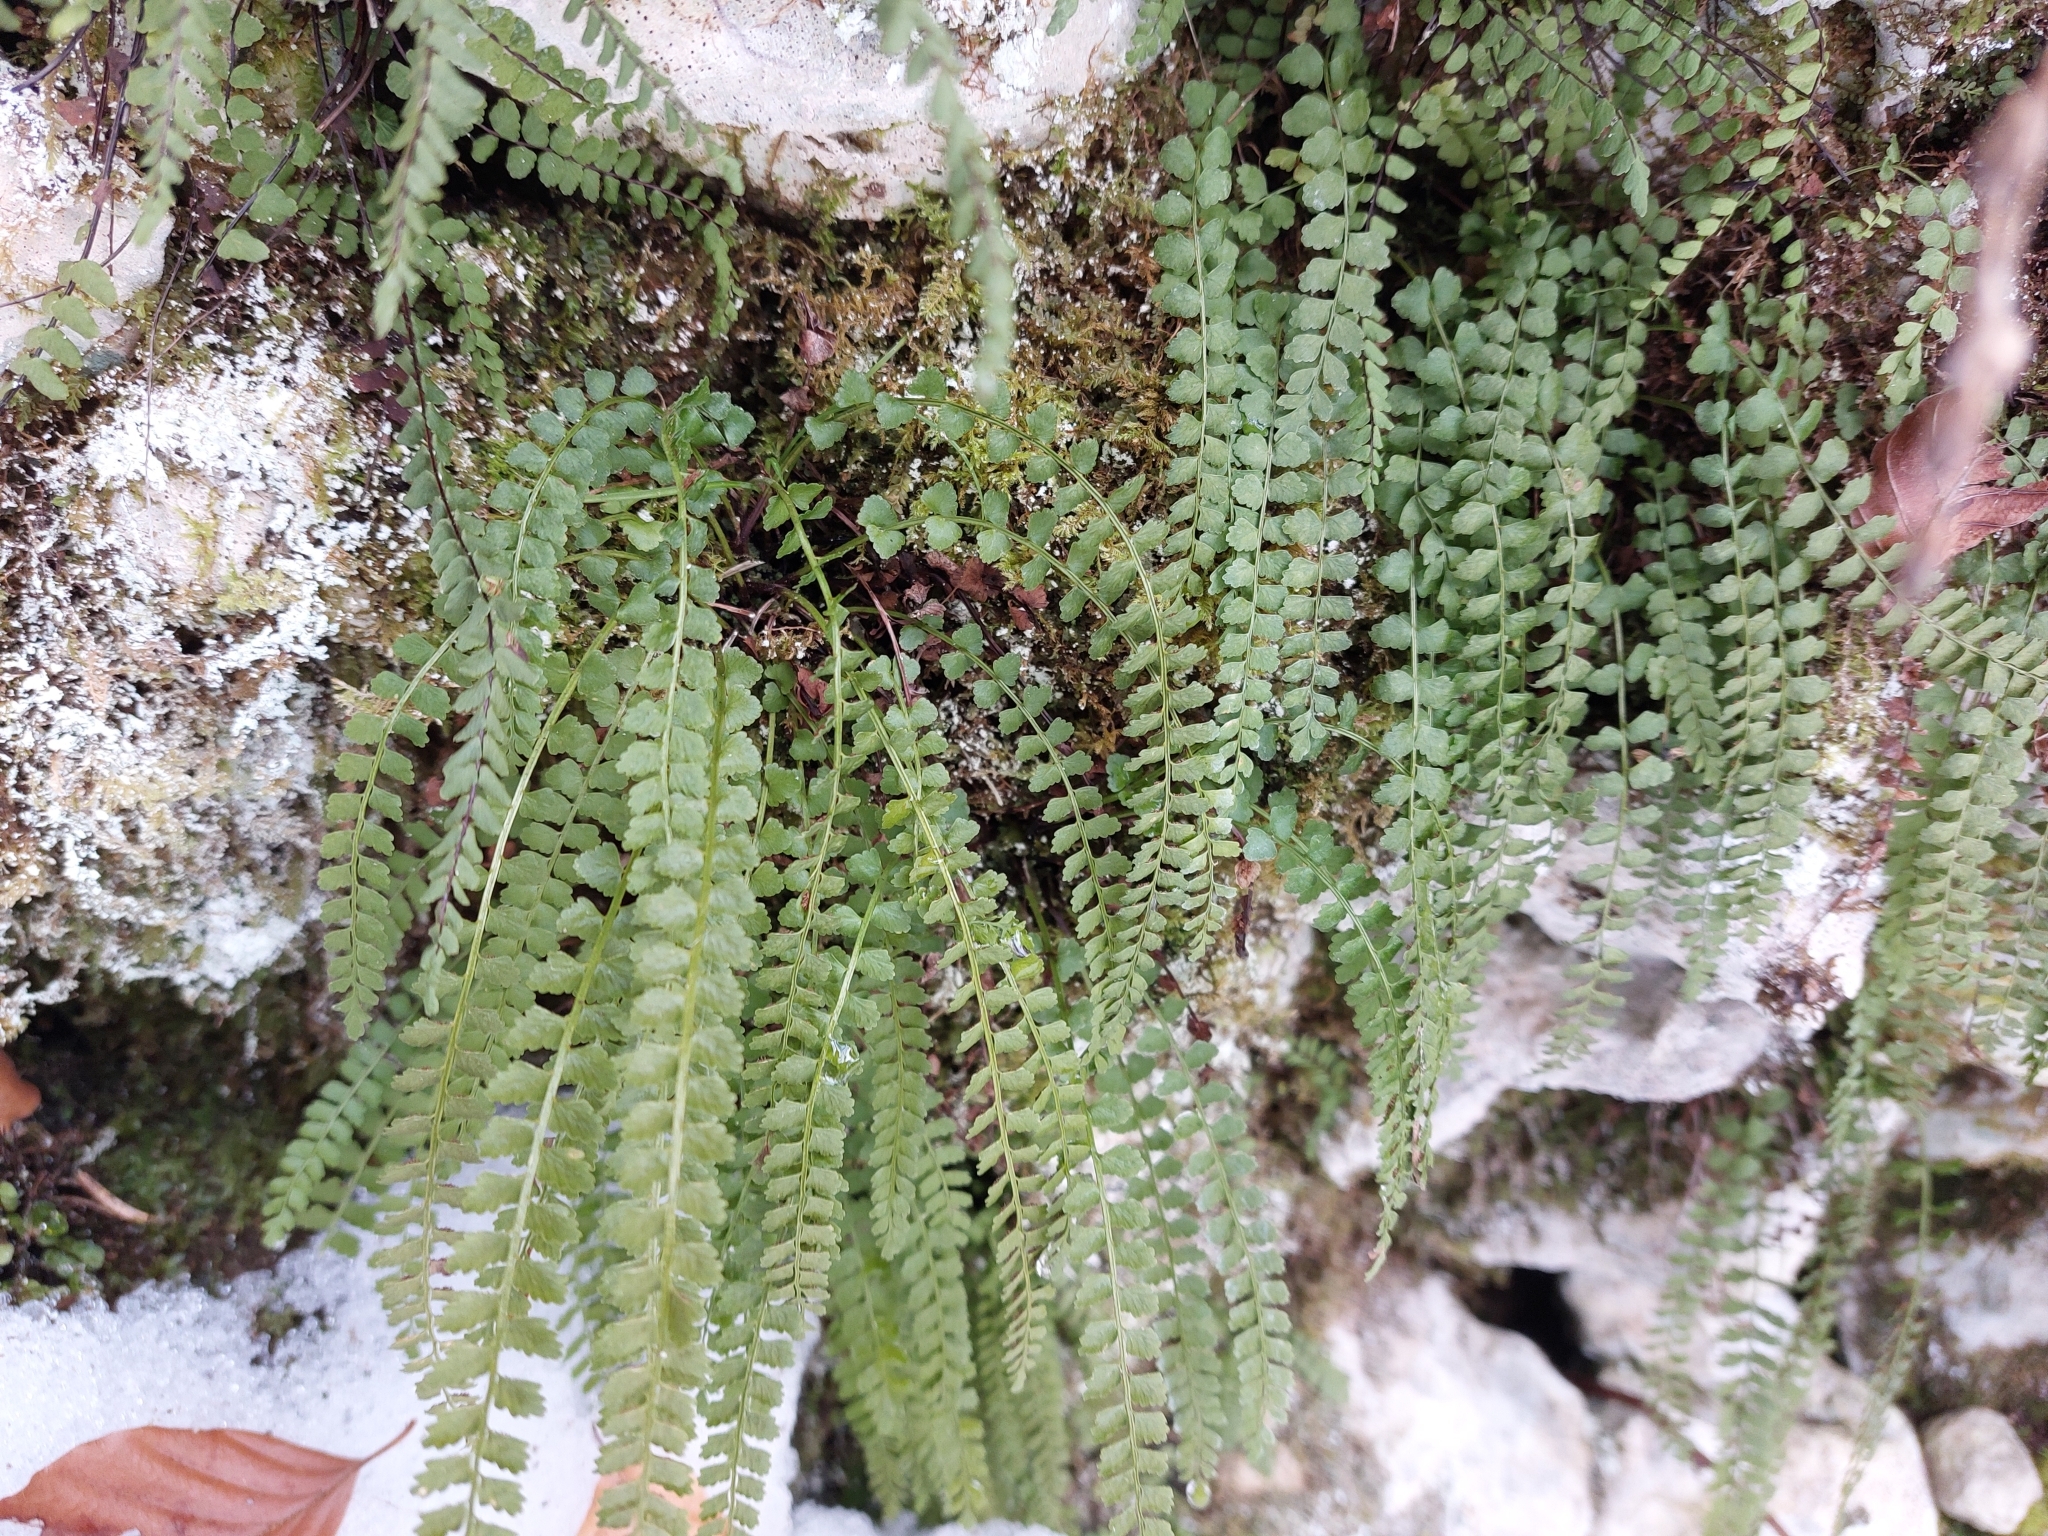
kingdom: Plantae
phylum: Tracheophyta
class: Polypodiopsida
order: Polypodiales
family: Aspleniaceae
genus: Asplenium
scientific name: Asplenium viride
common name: Green spleenwort
